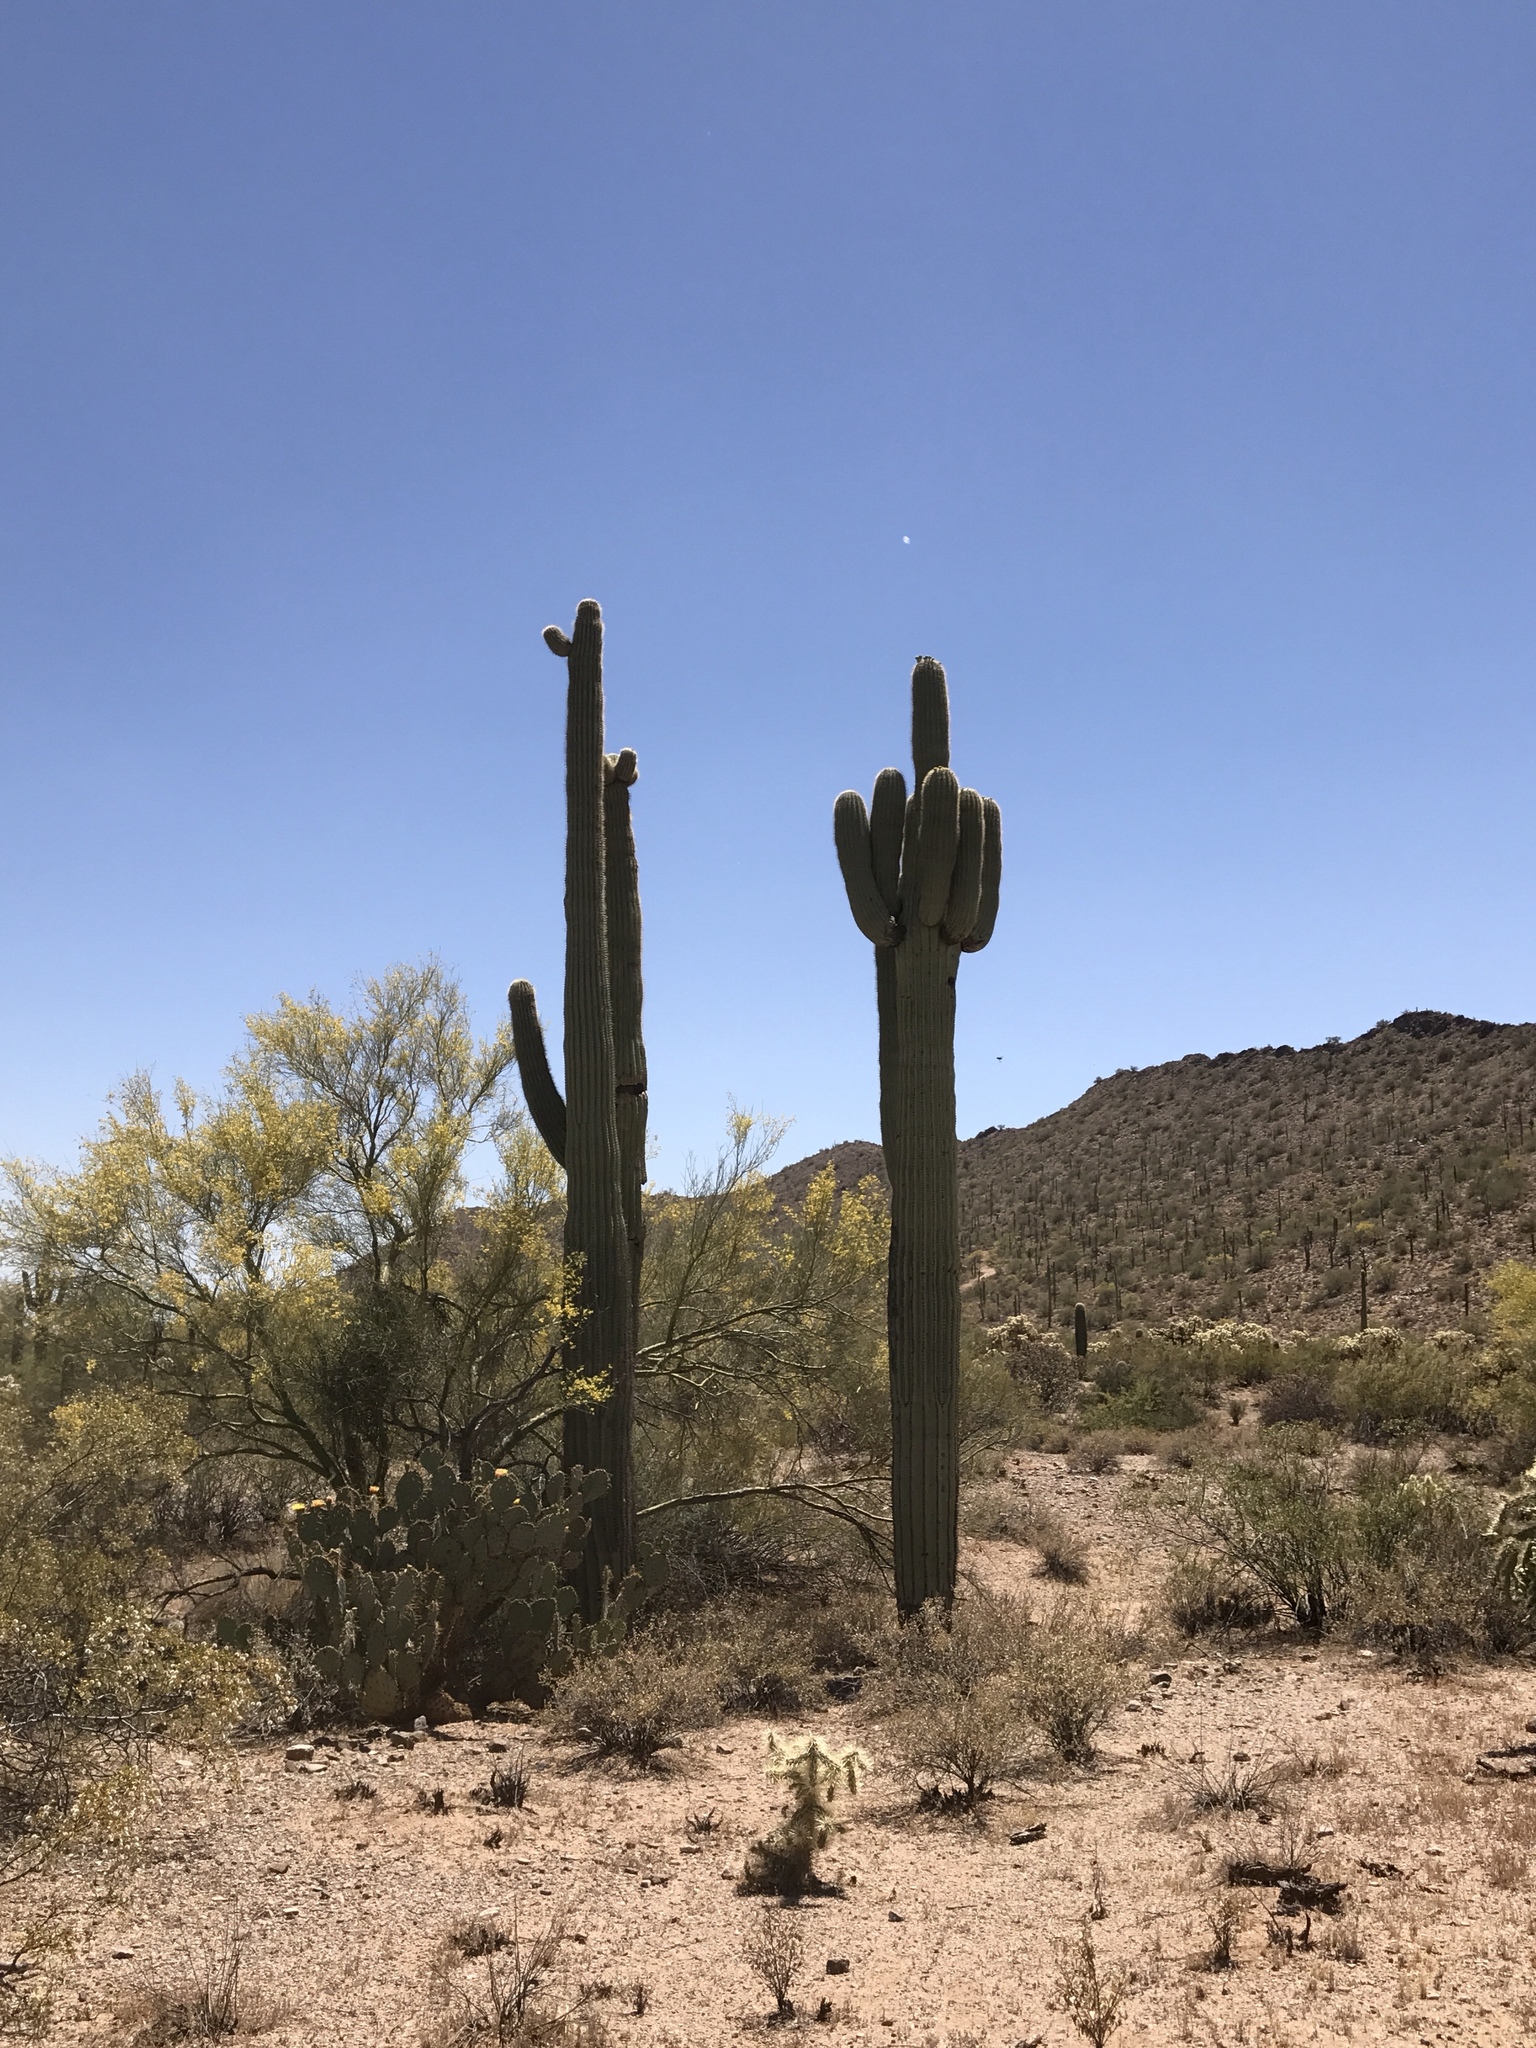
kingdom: Plantae
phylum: Tracheophyta
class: Magnoliopsida
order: Caryophyllales
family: Cactaceae
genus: Carnegiea
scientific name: Carnegiea gigantea
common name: Saguaro
